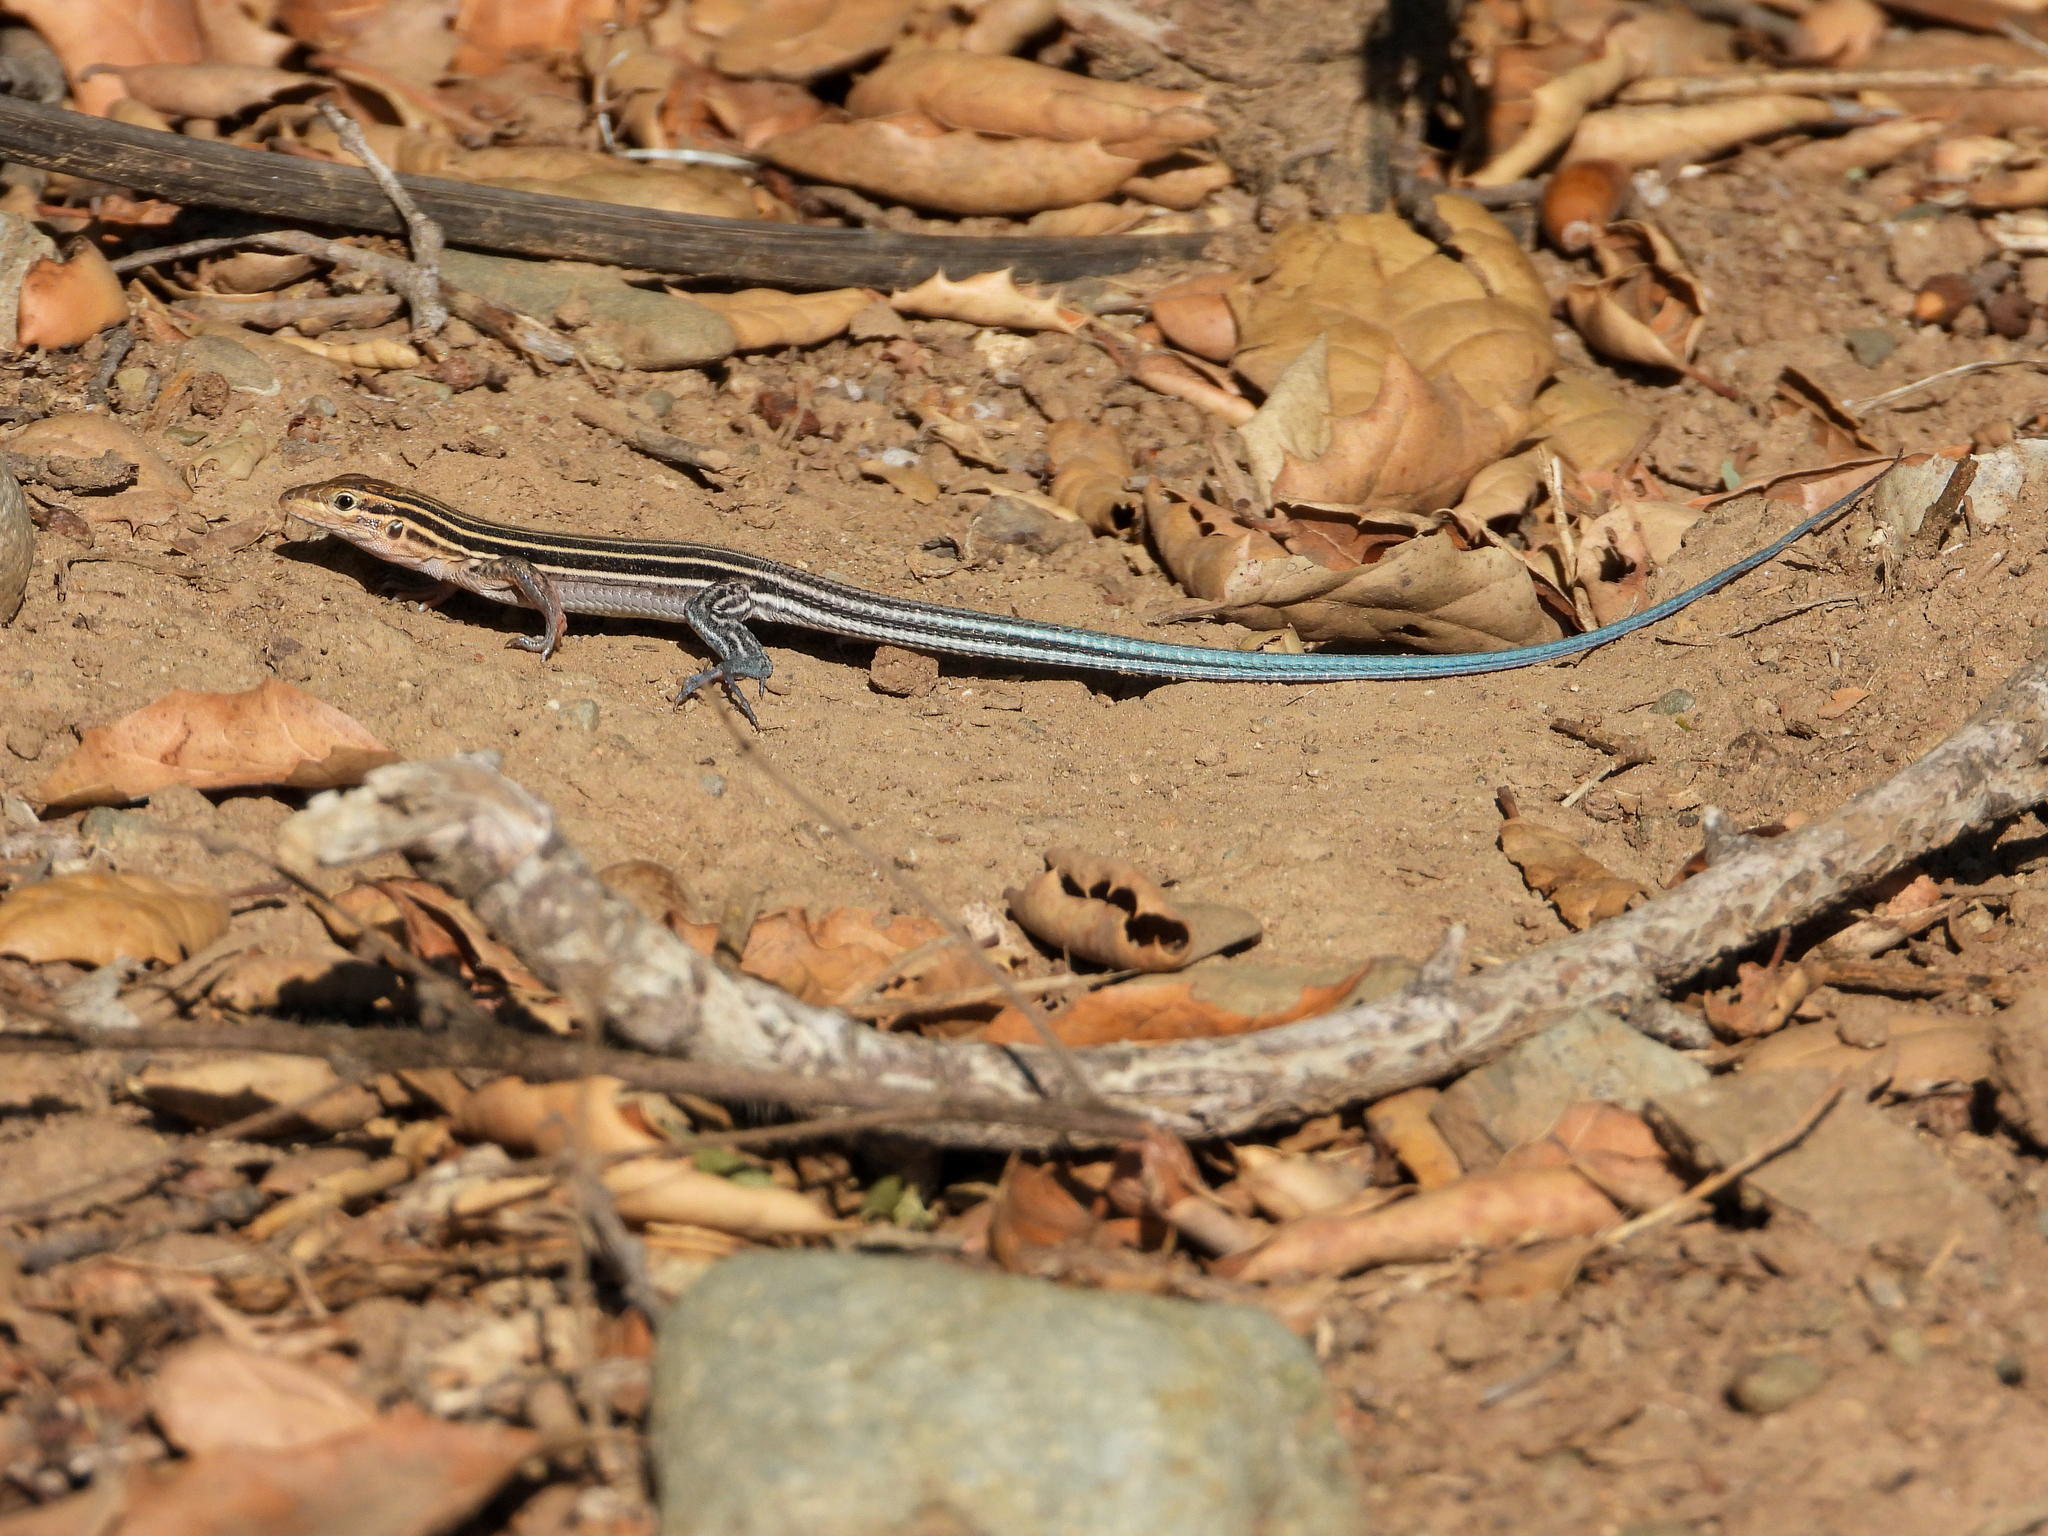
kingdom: Animalia
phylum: Chordata
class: Squamata
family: Teiidae
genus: Aspidoscelis
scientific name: Aspidoscelis hyperythrus
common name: Orange-throated race-runner
